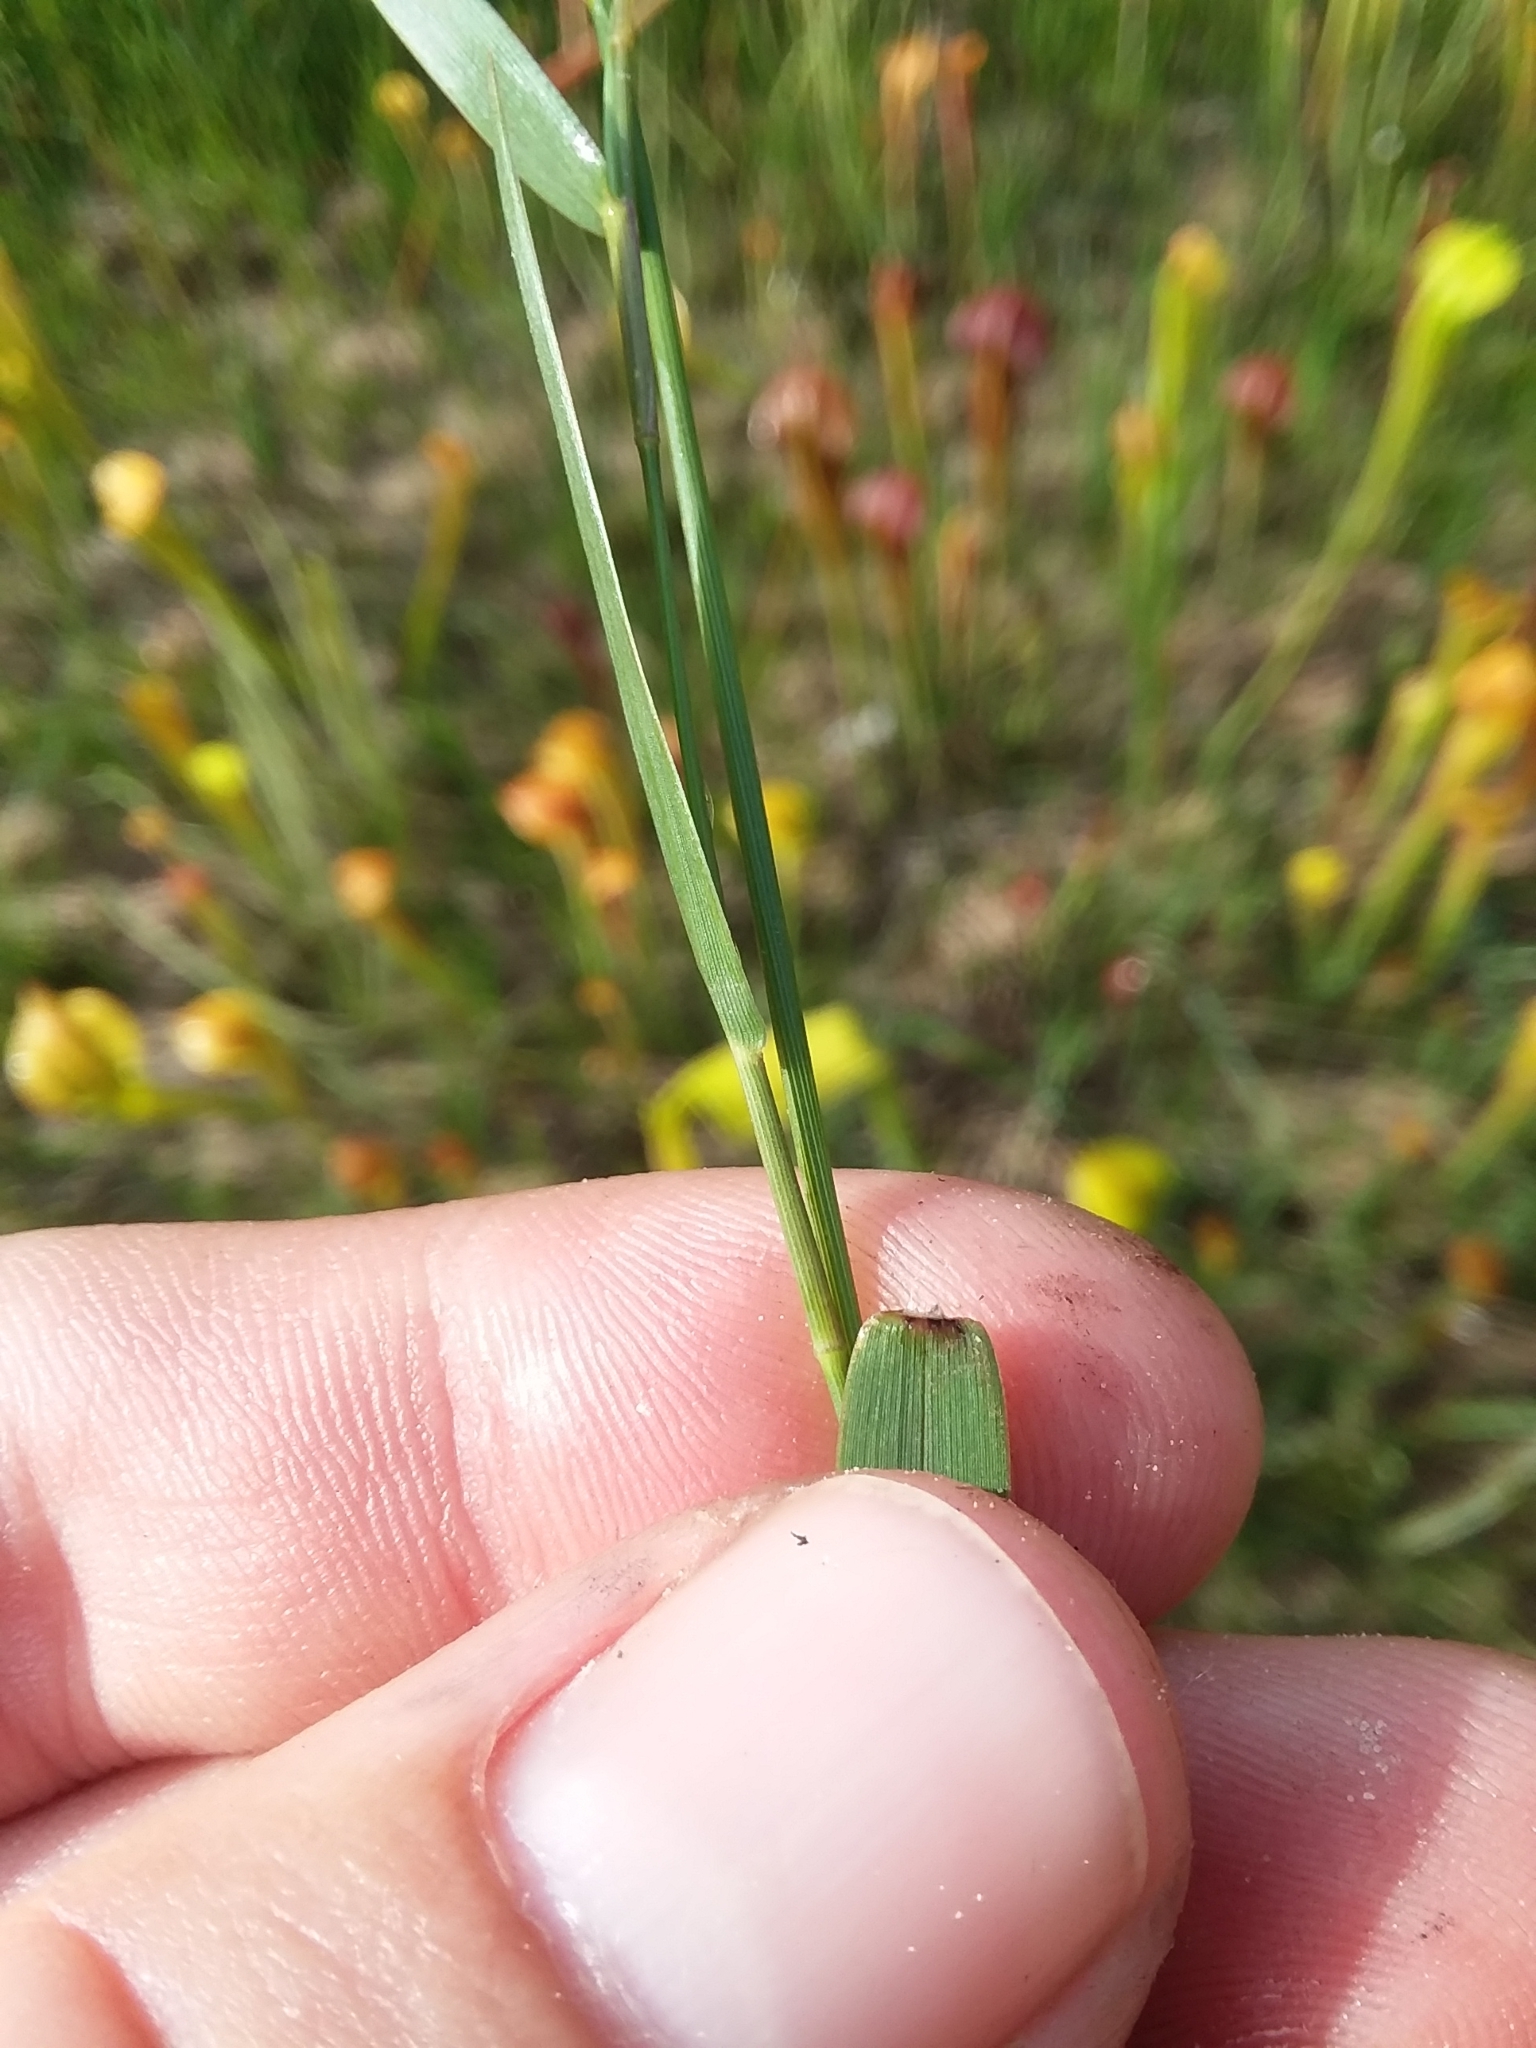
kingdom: Plantae
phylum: Tracheophyta
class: Liliopsida
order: Poales
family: Poaceae
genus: Dichanthelium
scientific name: Dichanthelium erectifolium
